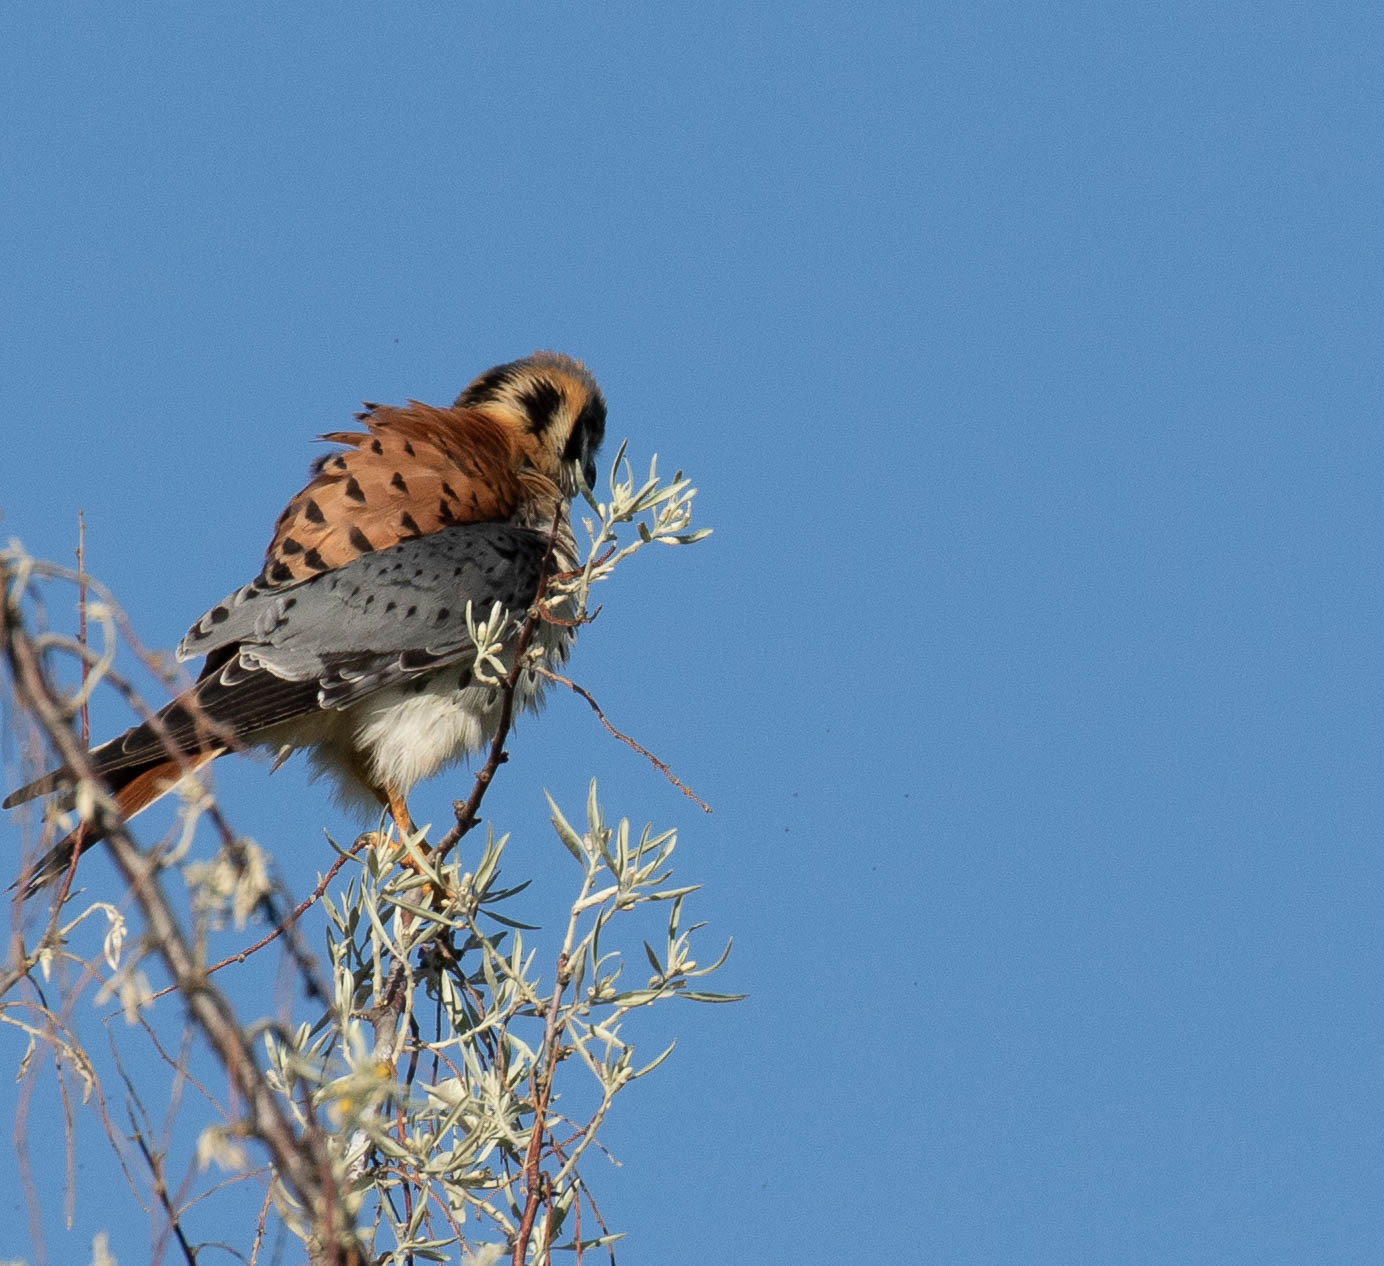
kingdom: Animalia
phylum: Chordata
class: Aves
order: Falconiformes
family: Falconidae
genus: Falco
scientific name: Falco sparverius
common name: American kestrel
